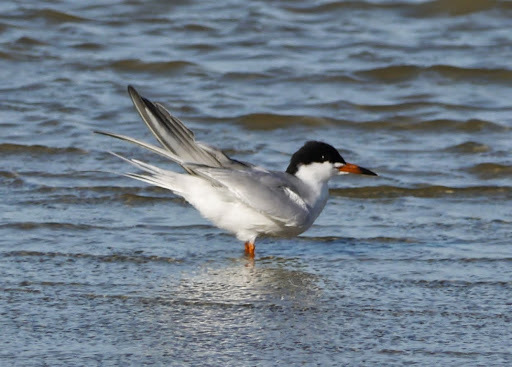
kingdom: Animalia
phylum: Chordata
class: Aves
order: Charadriiformes
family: Laridae
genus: Sterna
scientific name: Sterna forsteri
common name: Forster's tern
